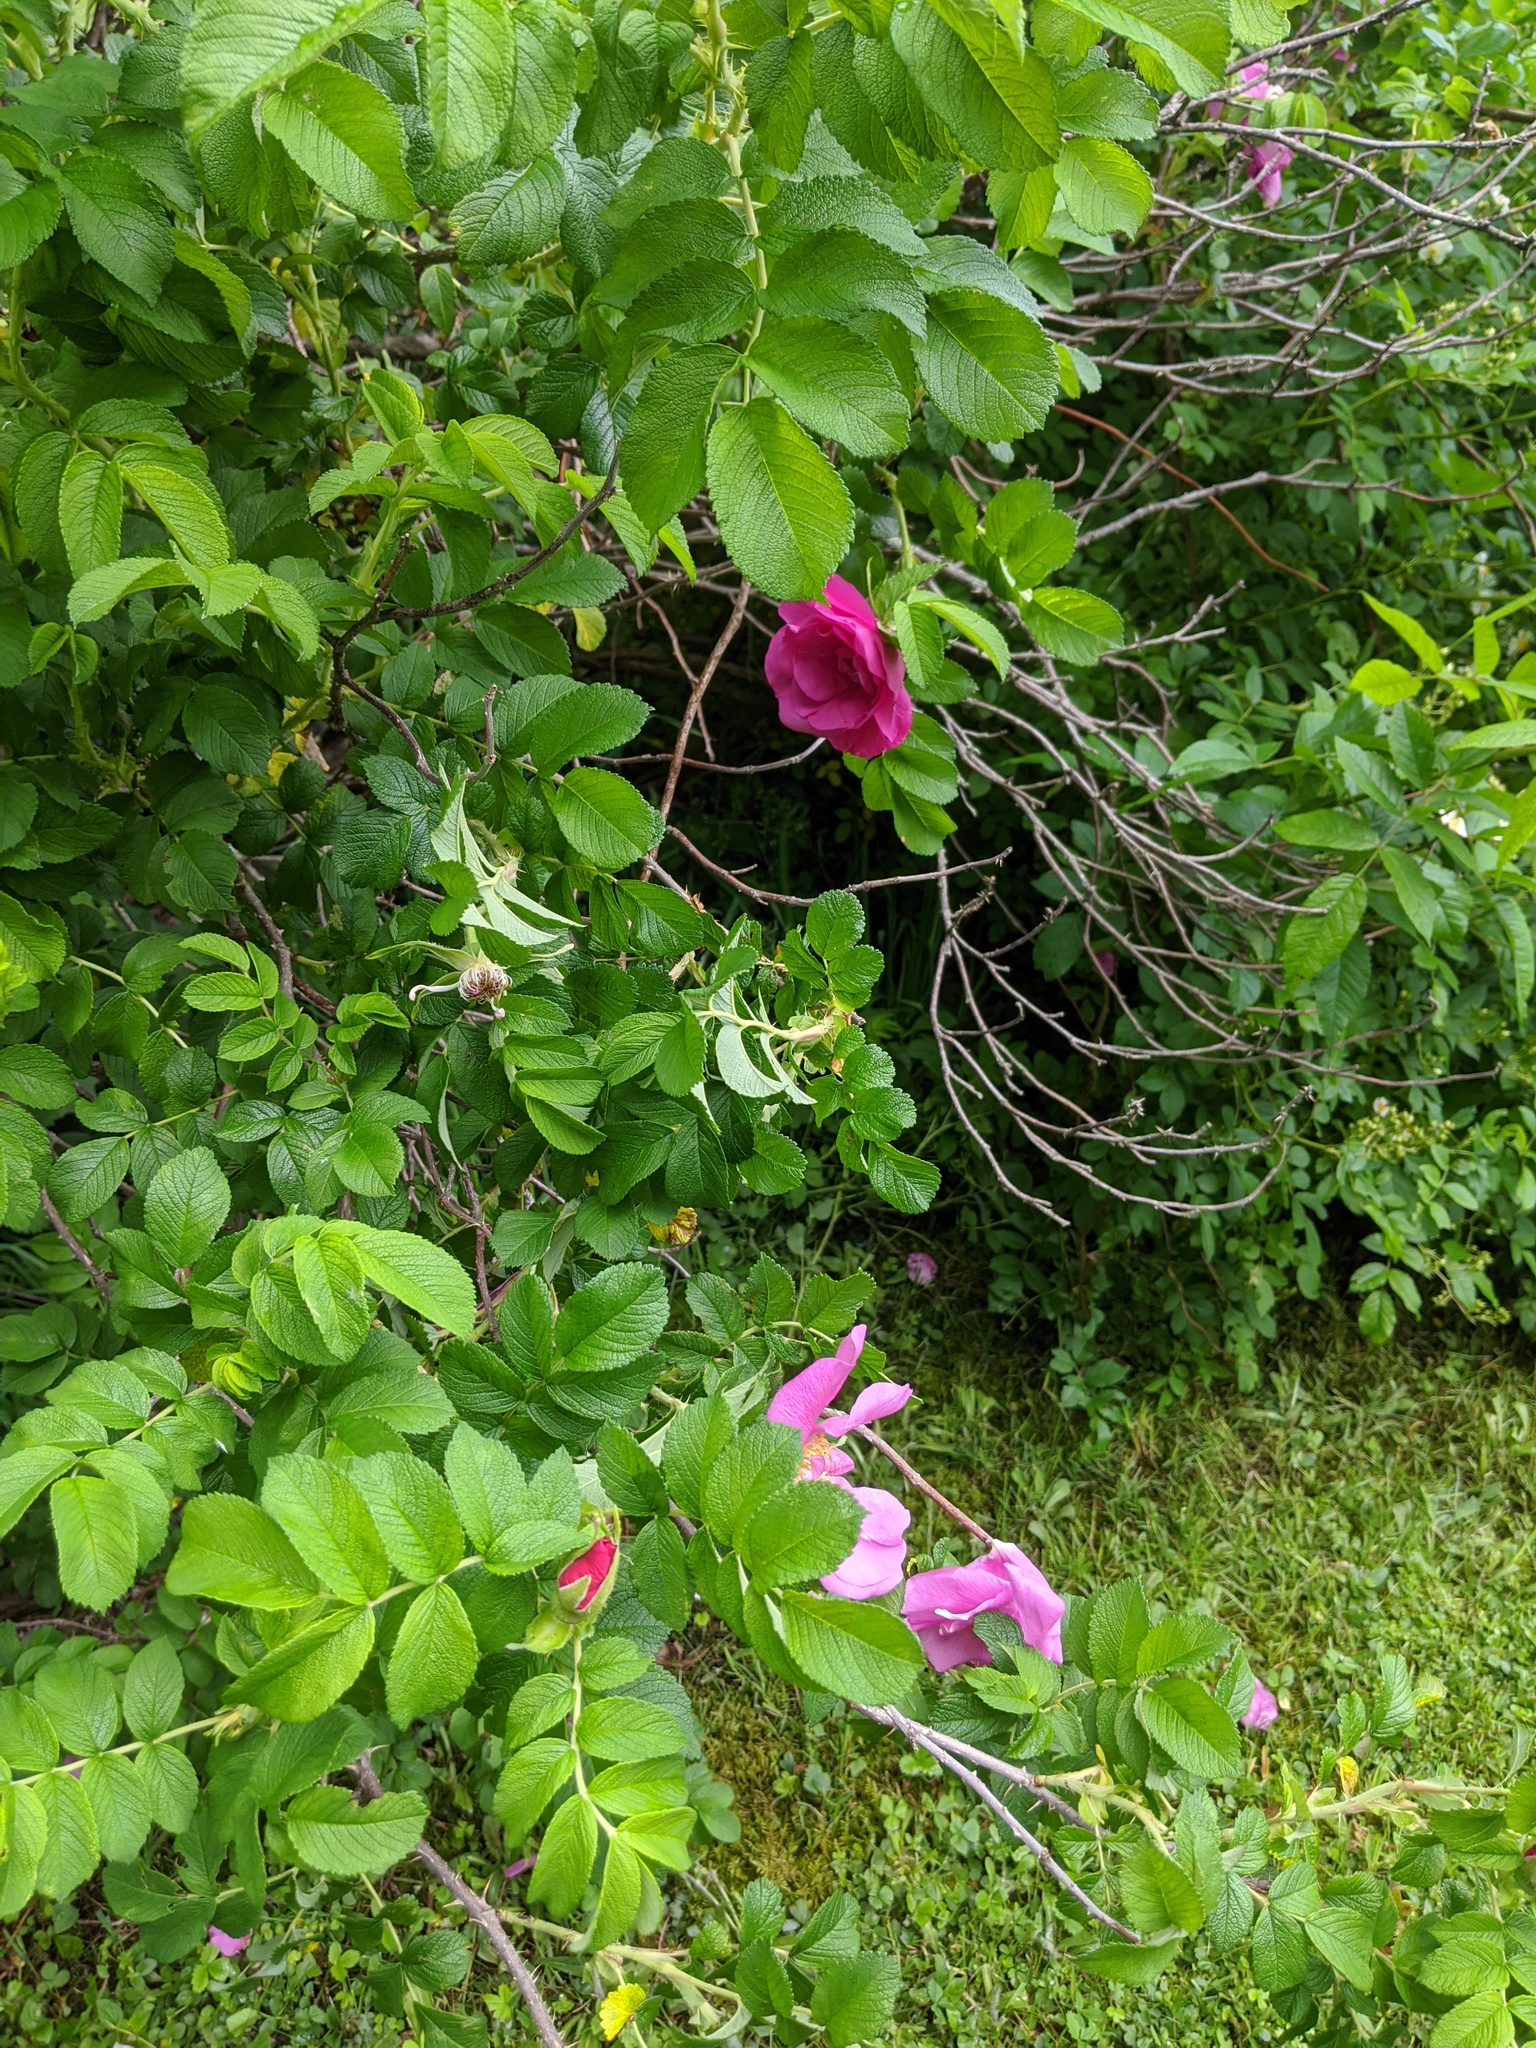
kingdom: Plantae
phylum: Tracheophyta
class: Magnoliopsida
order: Rosales
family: Rosaceae
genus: Rosa
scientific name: Rosa rugosa
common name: Japanese rose
